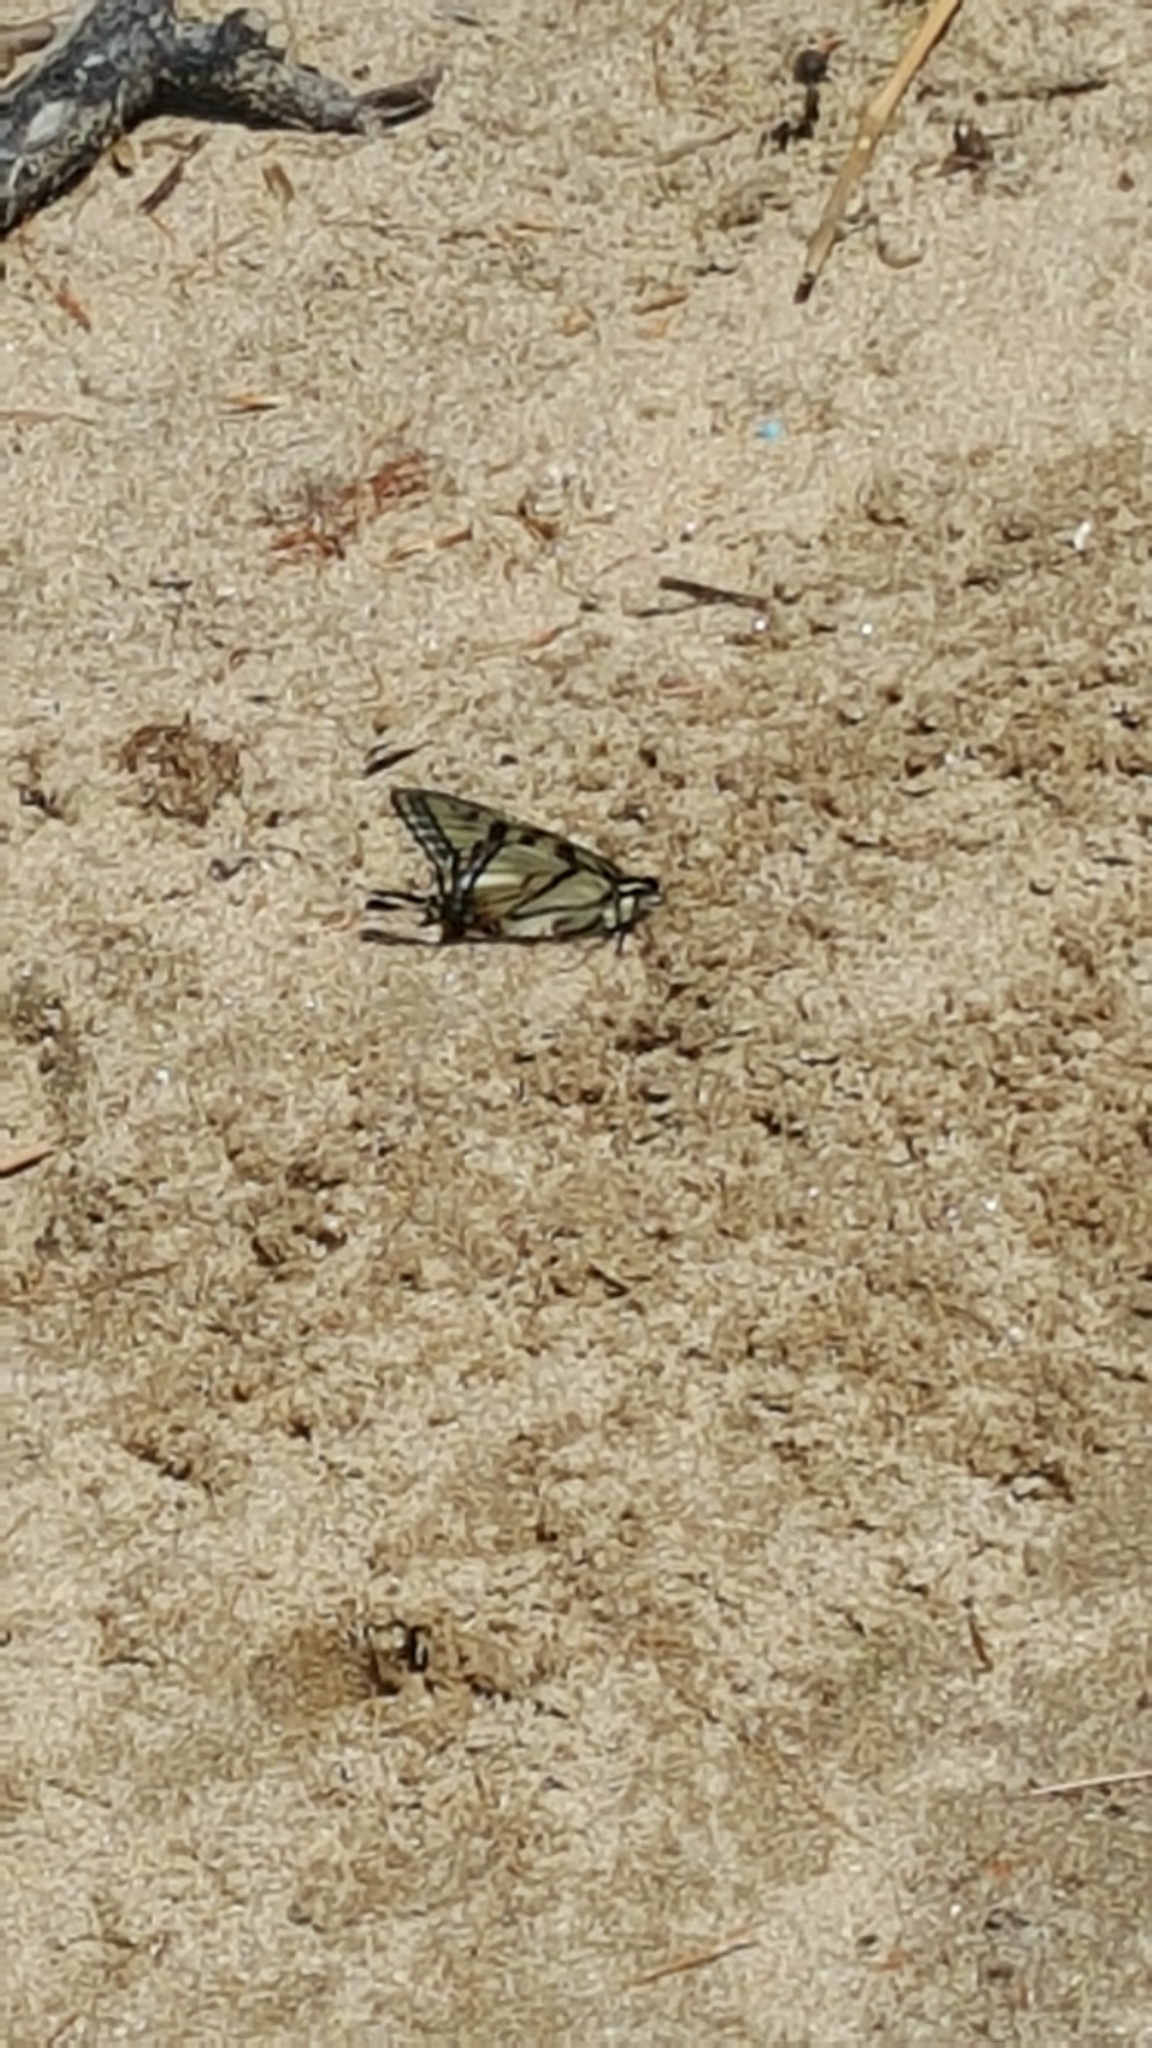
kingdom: Animalia
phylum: Arthropoda
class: Insecta
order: Lepidoptera
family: Papilionidae
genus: Papilio
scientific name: Papilio canadensis
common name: Canadian tiger swallowtail
